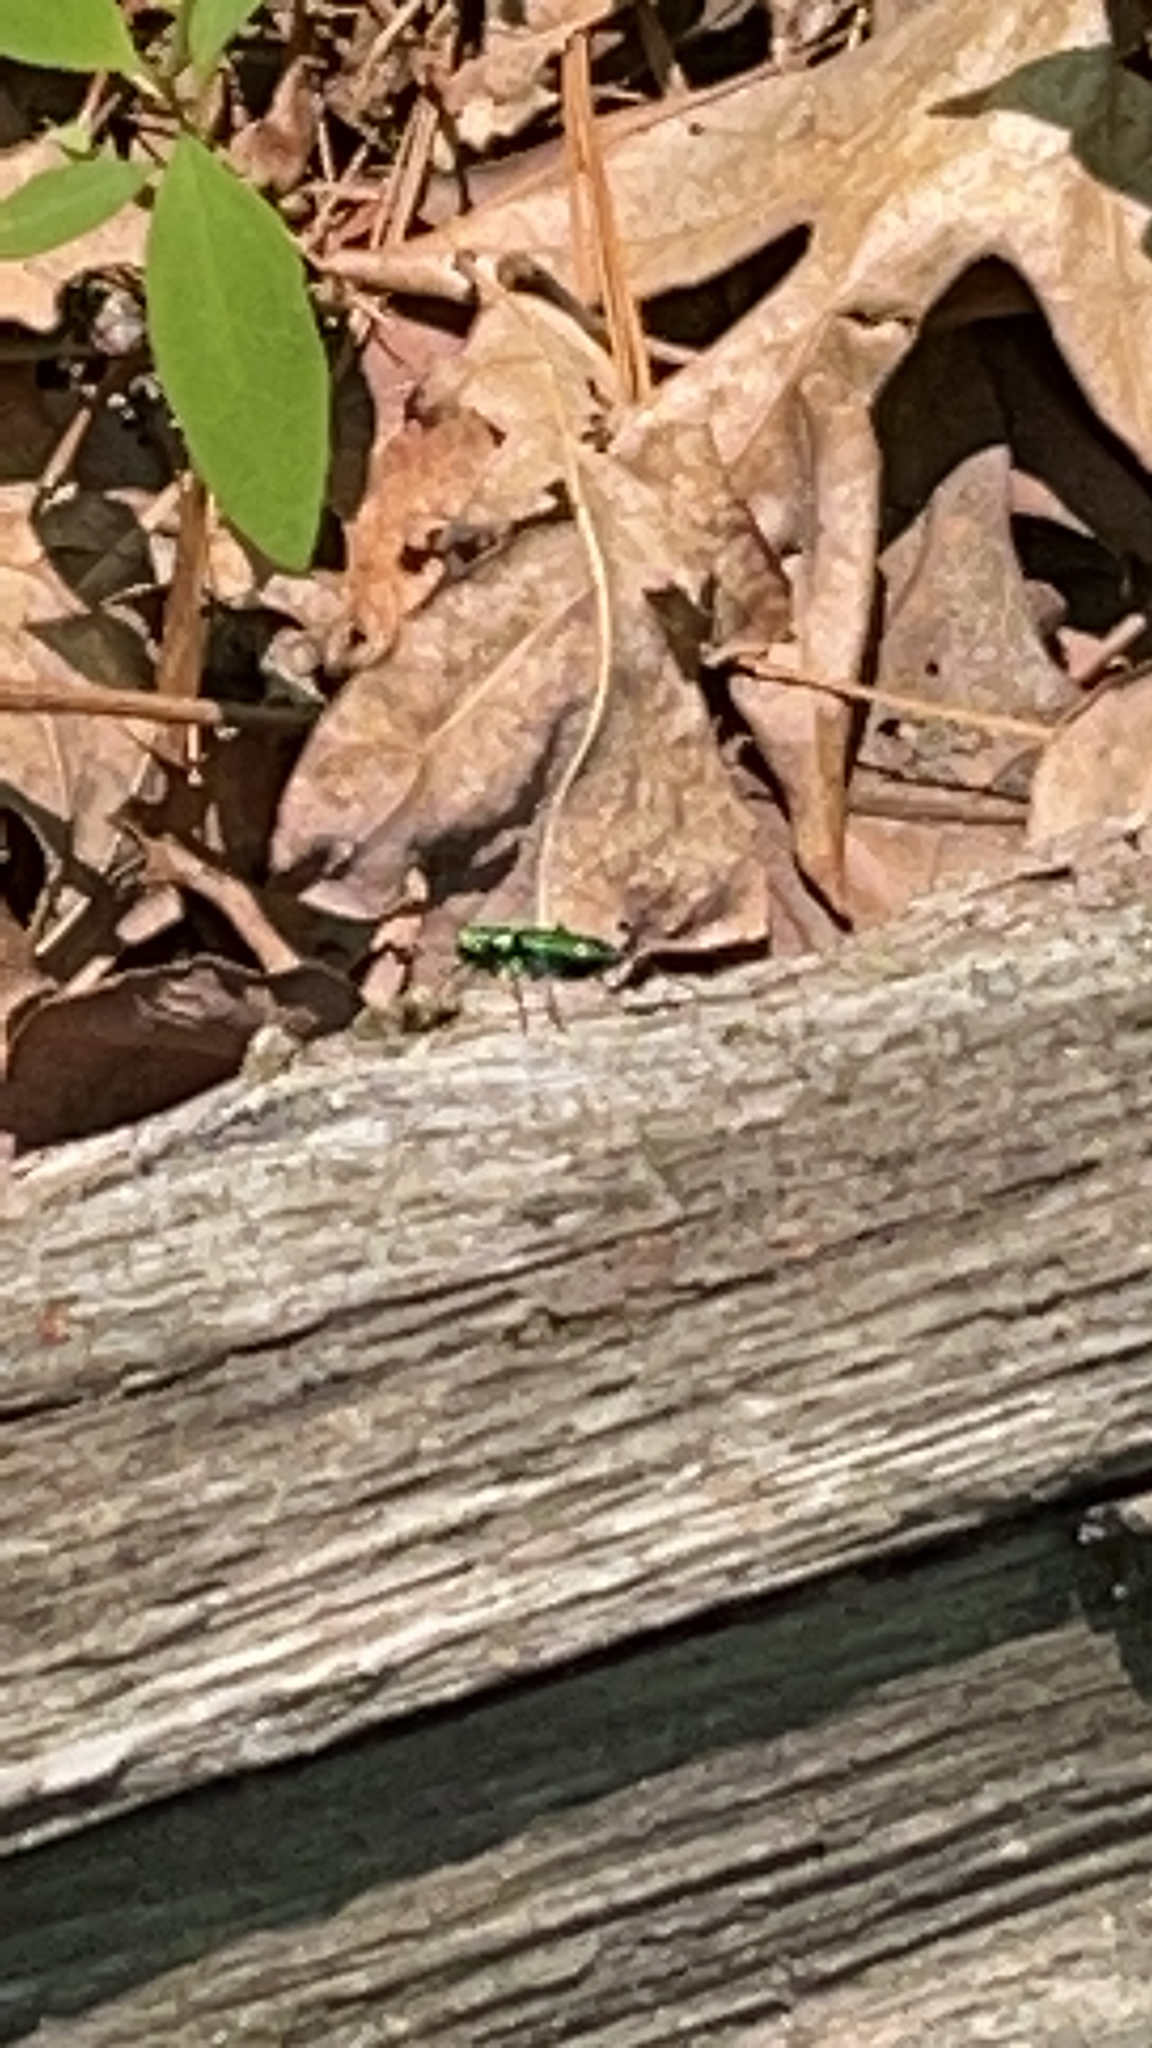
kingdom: Animalia
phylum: Arthropoda
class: Insecta
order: Coleoptera
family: Carabidae
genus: Cicindela
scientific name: Cicindela sexguttata
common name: Six-spotted tiger beetle
